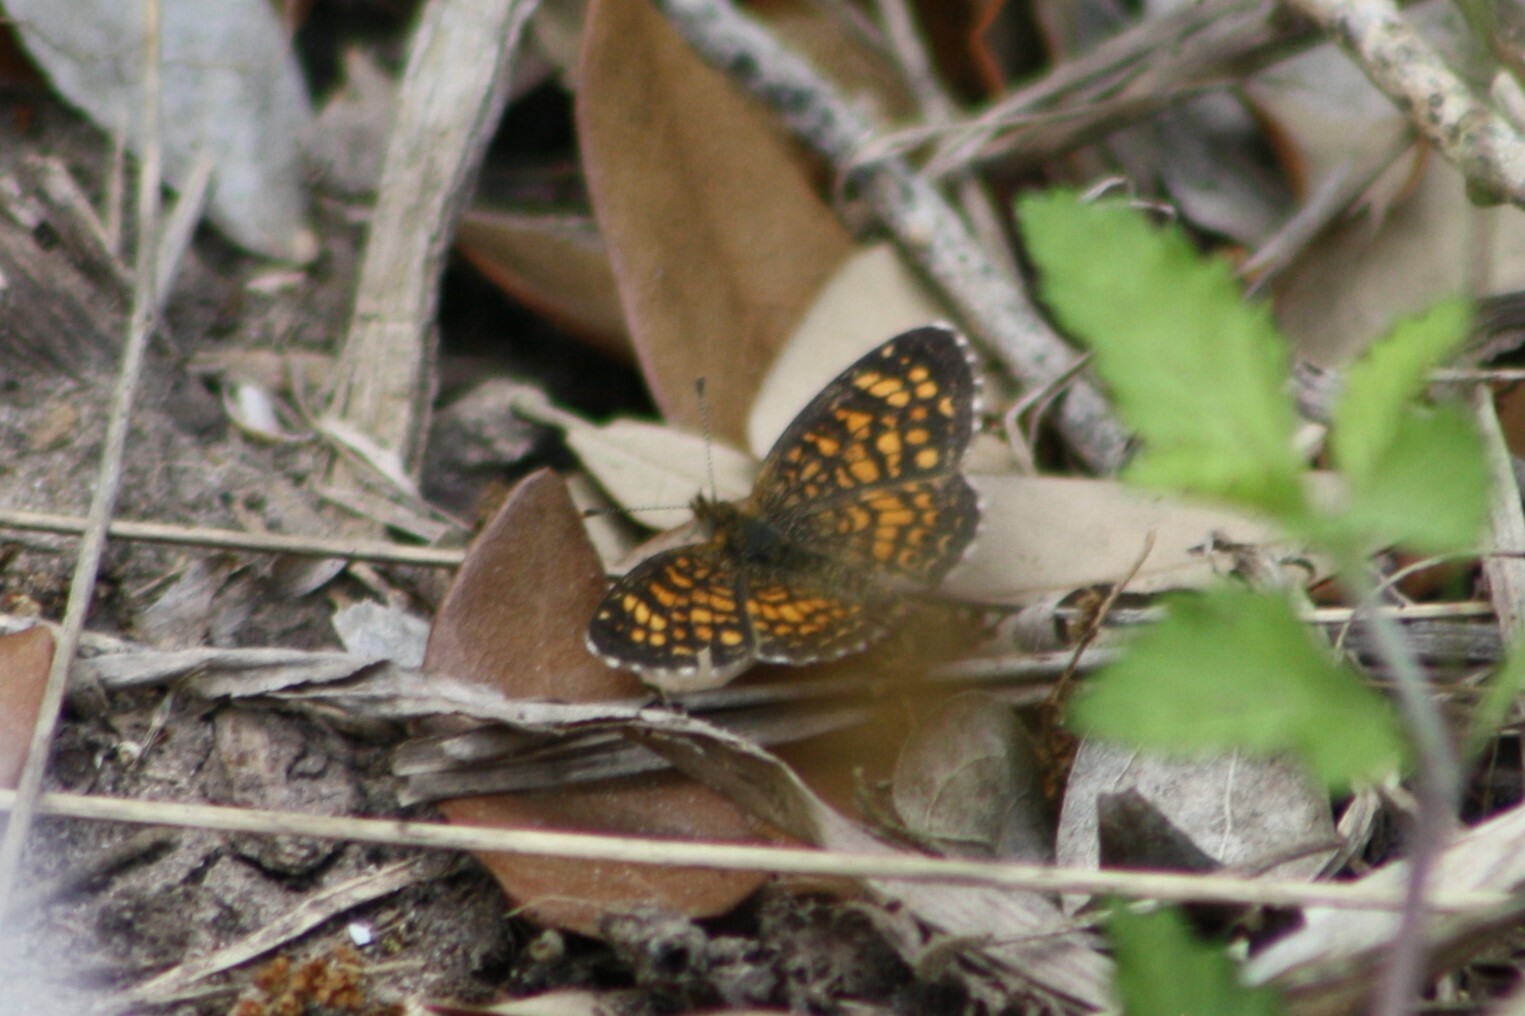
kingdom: Animalia
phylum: Arthropoda
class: Insecta
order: Lepidoptera
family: Nymphalidae
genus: Phyciodes
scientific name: Phyciodes vesta
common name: Vesta crescent
